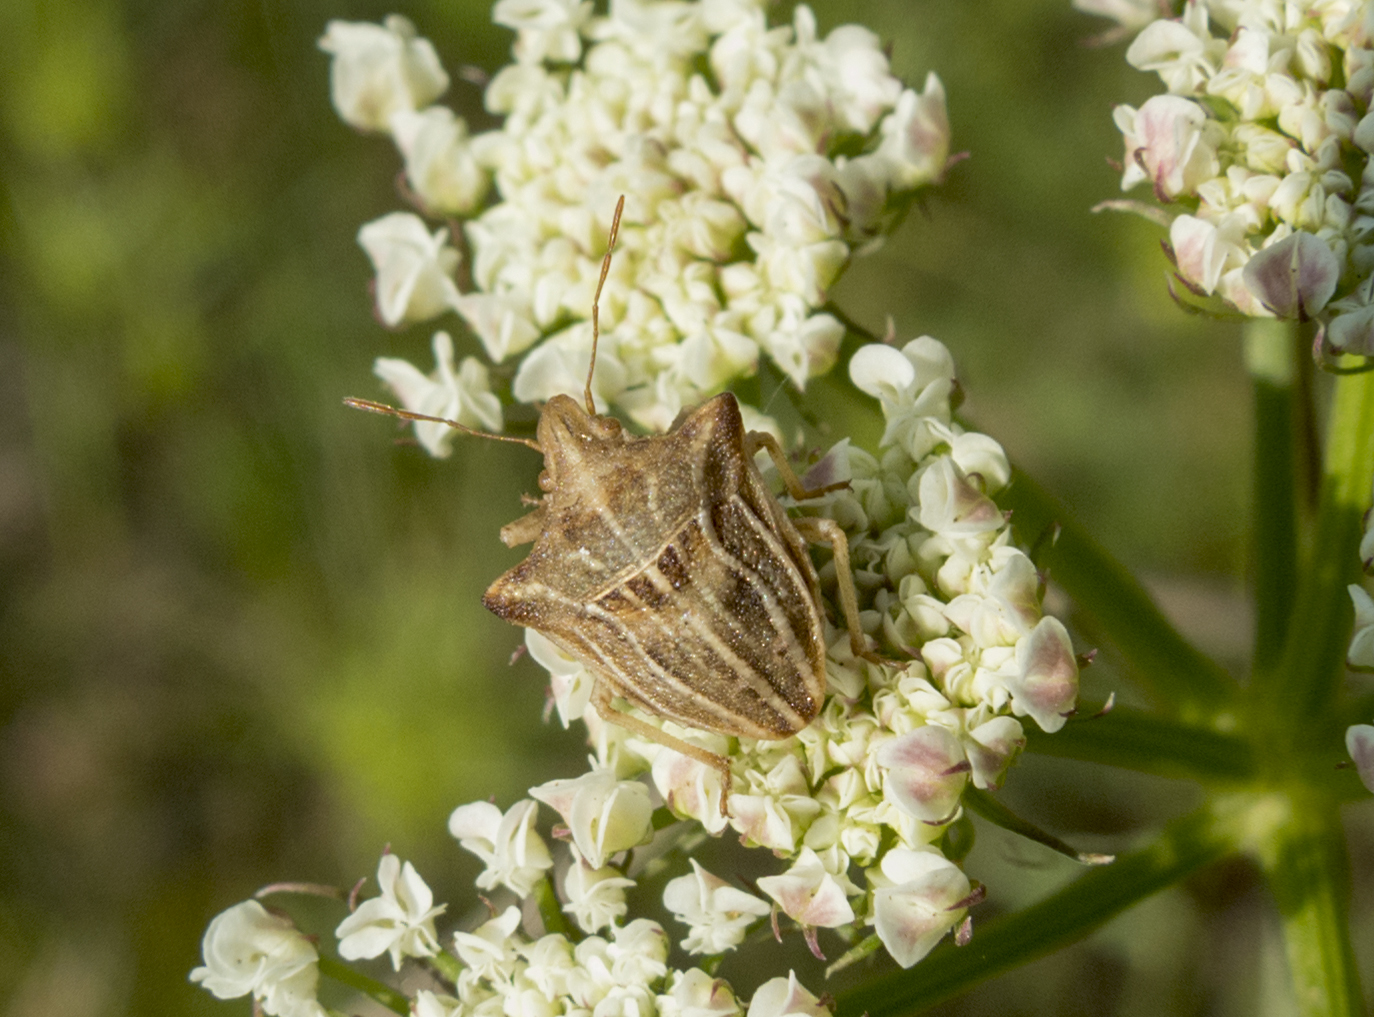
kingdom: Animalia
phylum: Arthropoda
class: Insecta
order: Hemiptera
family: Pentatomidae
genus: Ancyrosoma
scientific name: Ancyrosoma leucogrammes
